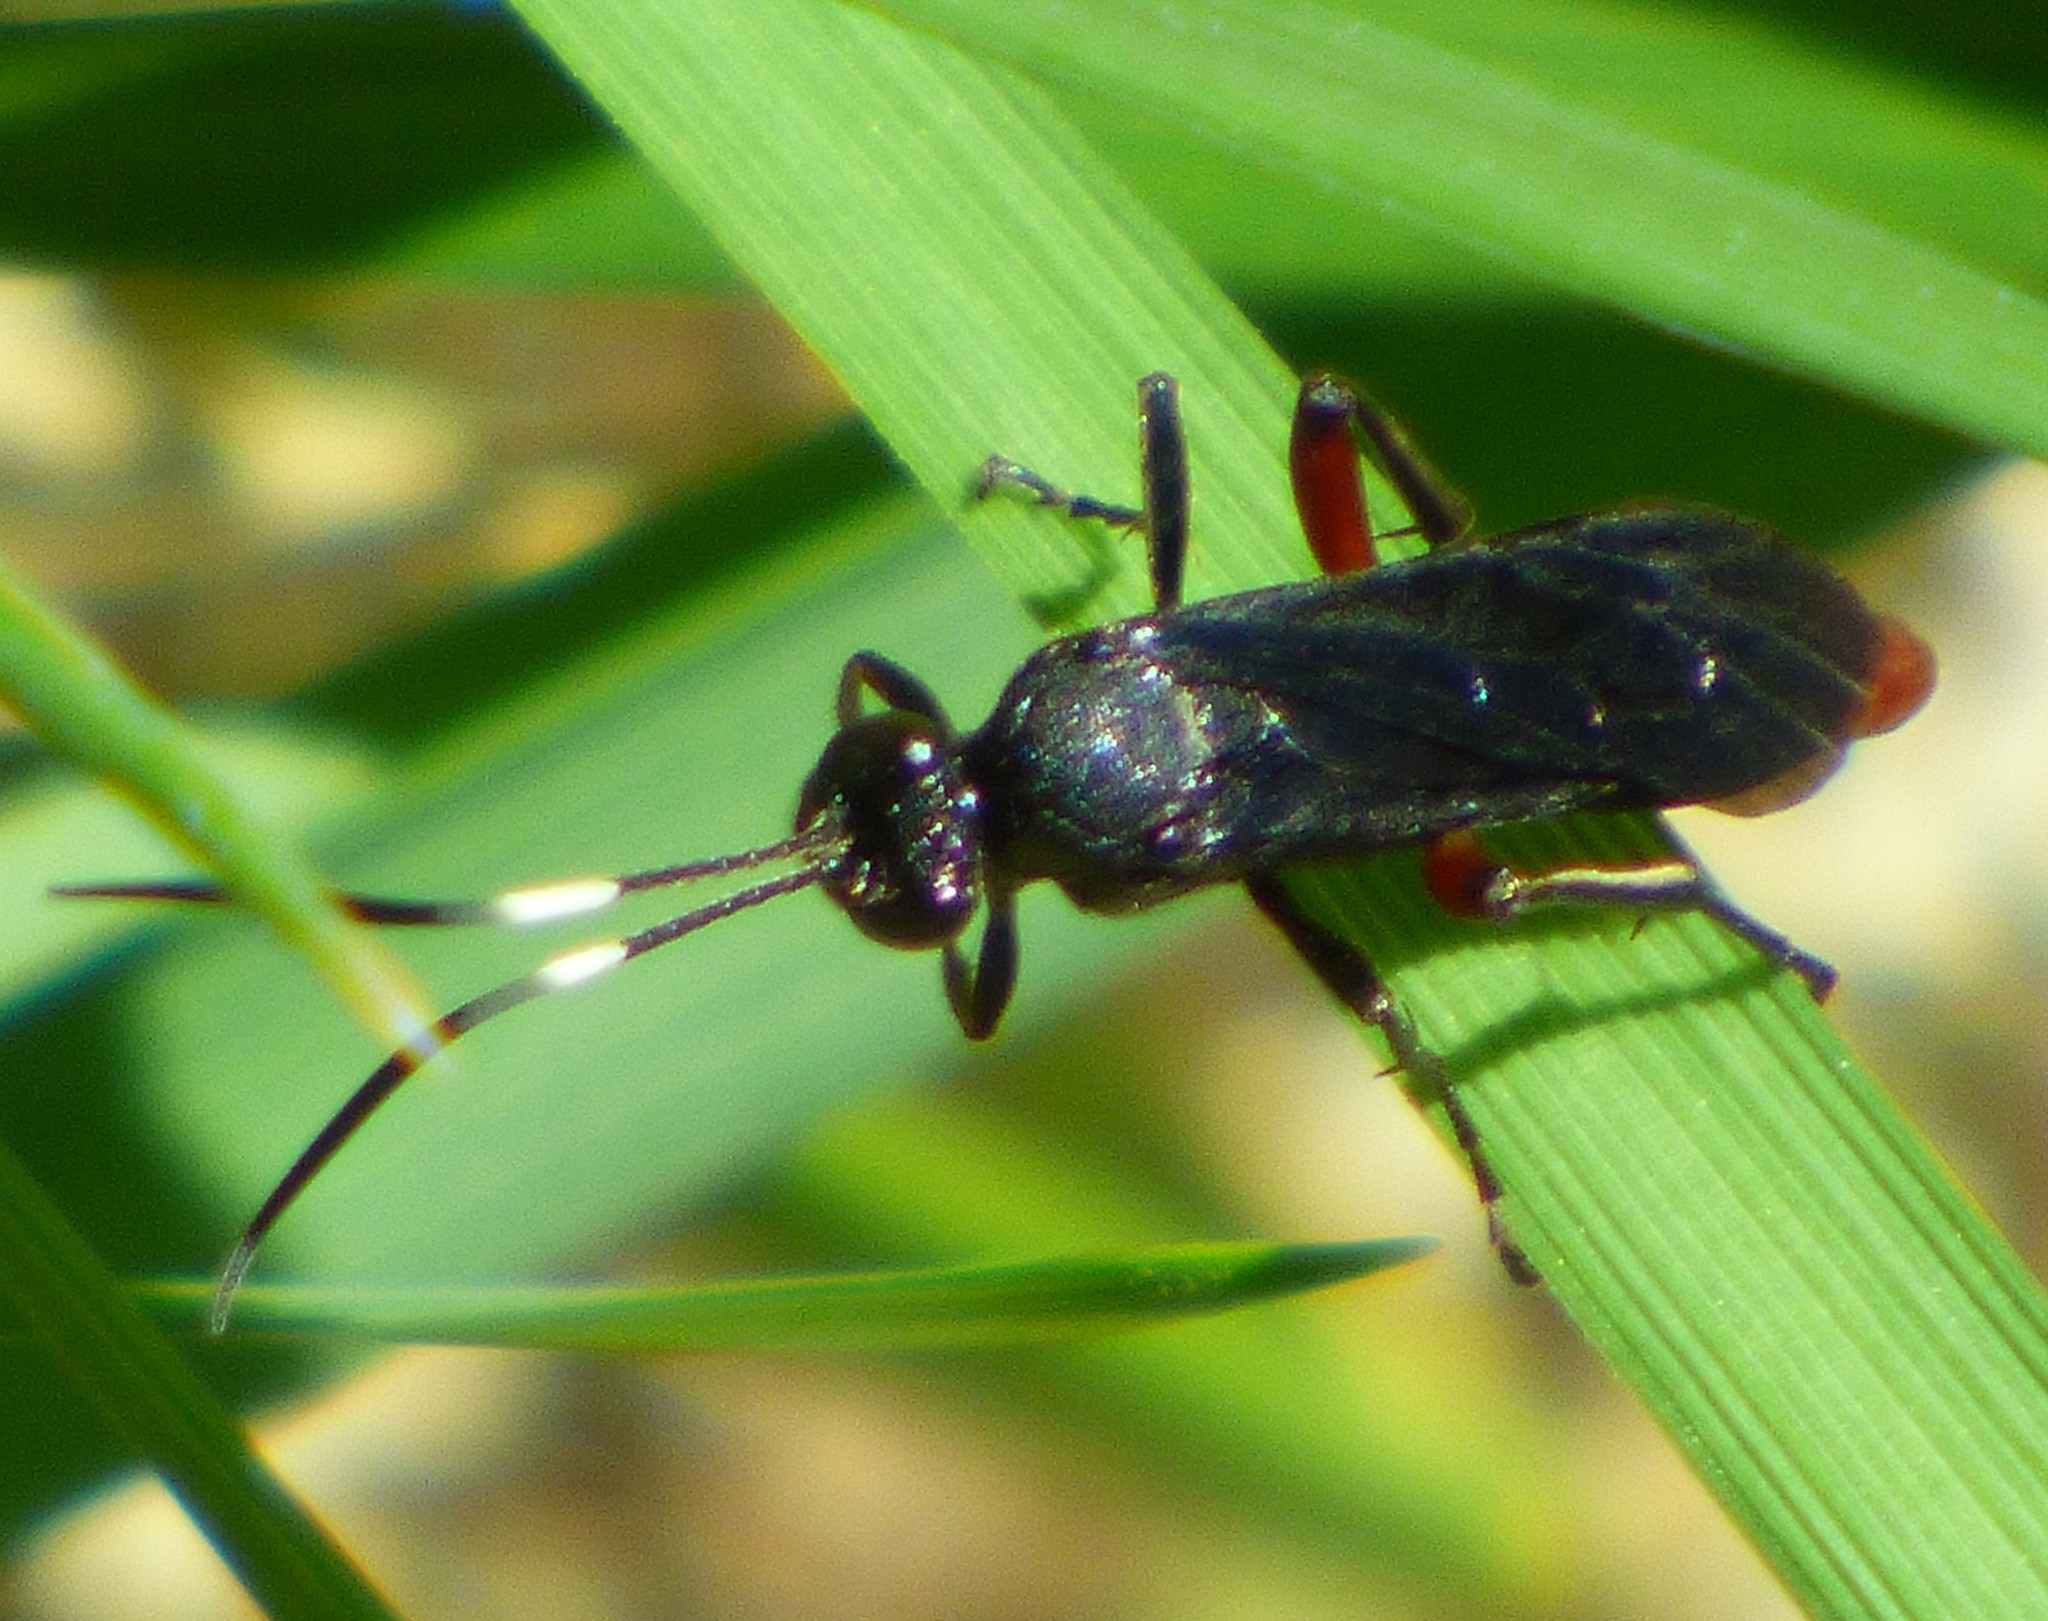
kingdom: Animalia
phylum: Arthropoda
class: Insecta
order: Hymenoptera
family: Ichneumonidae
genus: Limonethe
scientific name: Limonethe maurator
